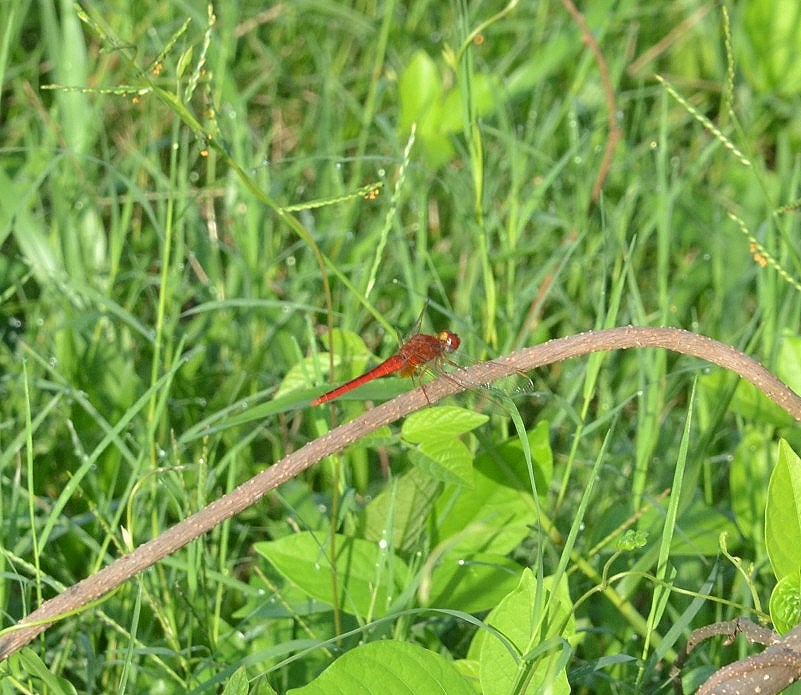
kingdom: Animalia
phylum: Arthropoda
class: Insecta
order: Odonata
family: Libellulidae
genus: Crocothemis
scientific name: Crocothemis servilia
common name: Scarlet skimmer
